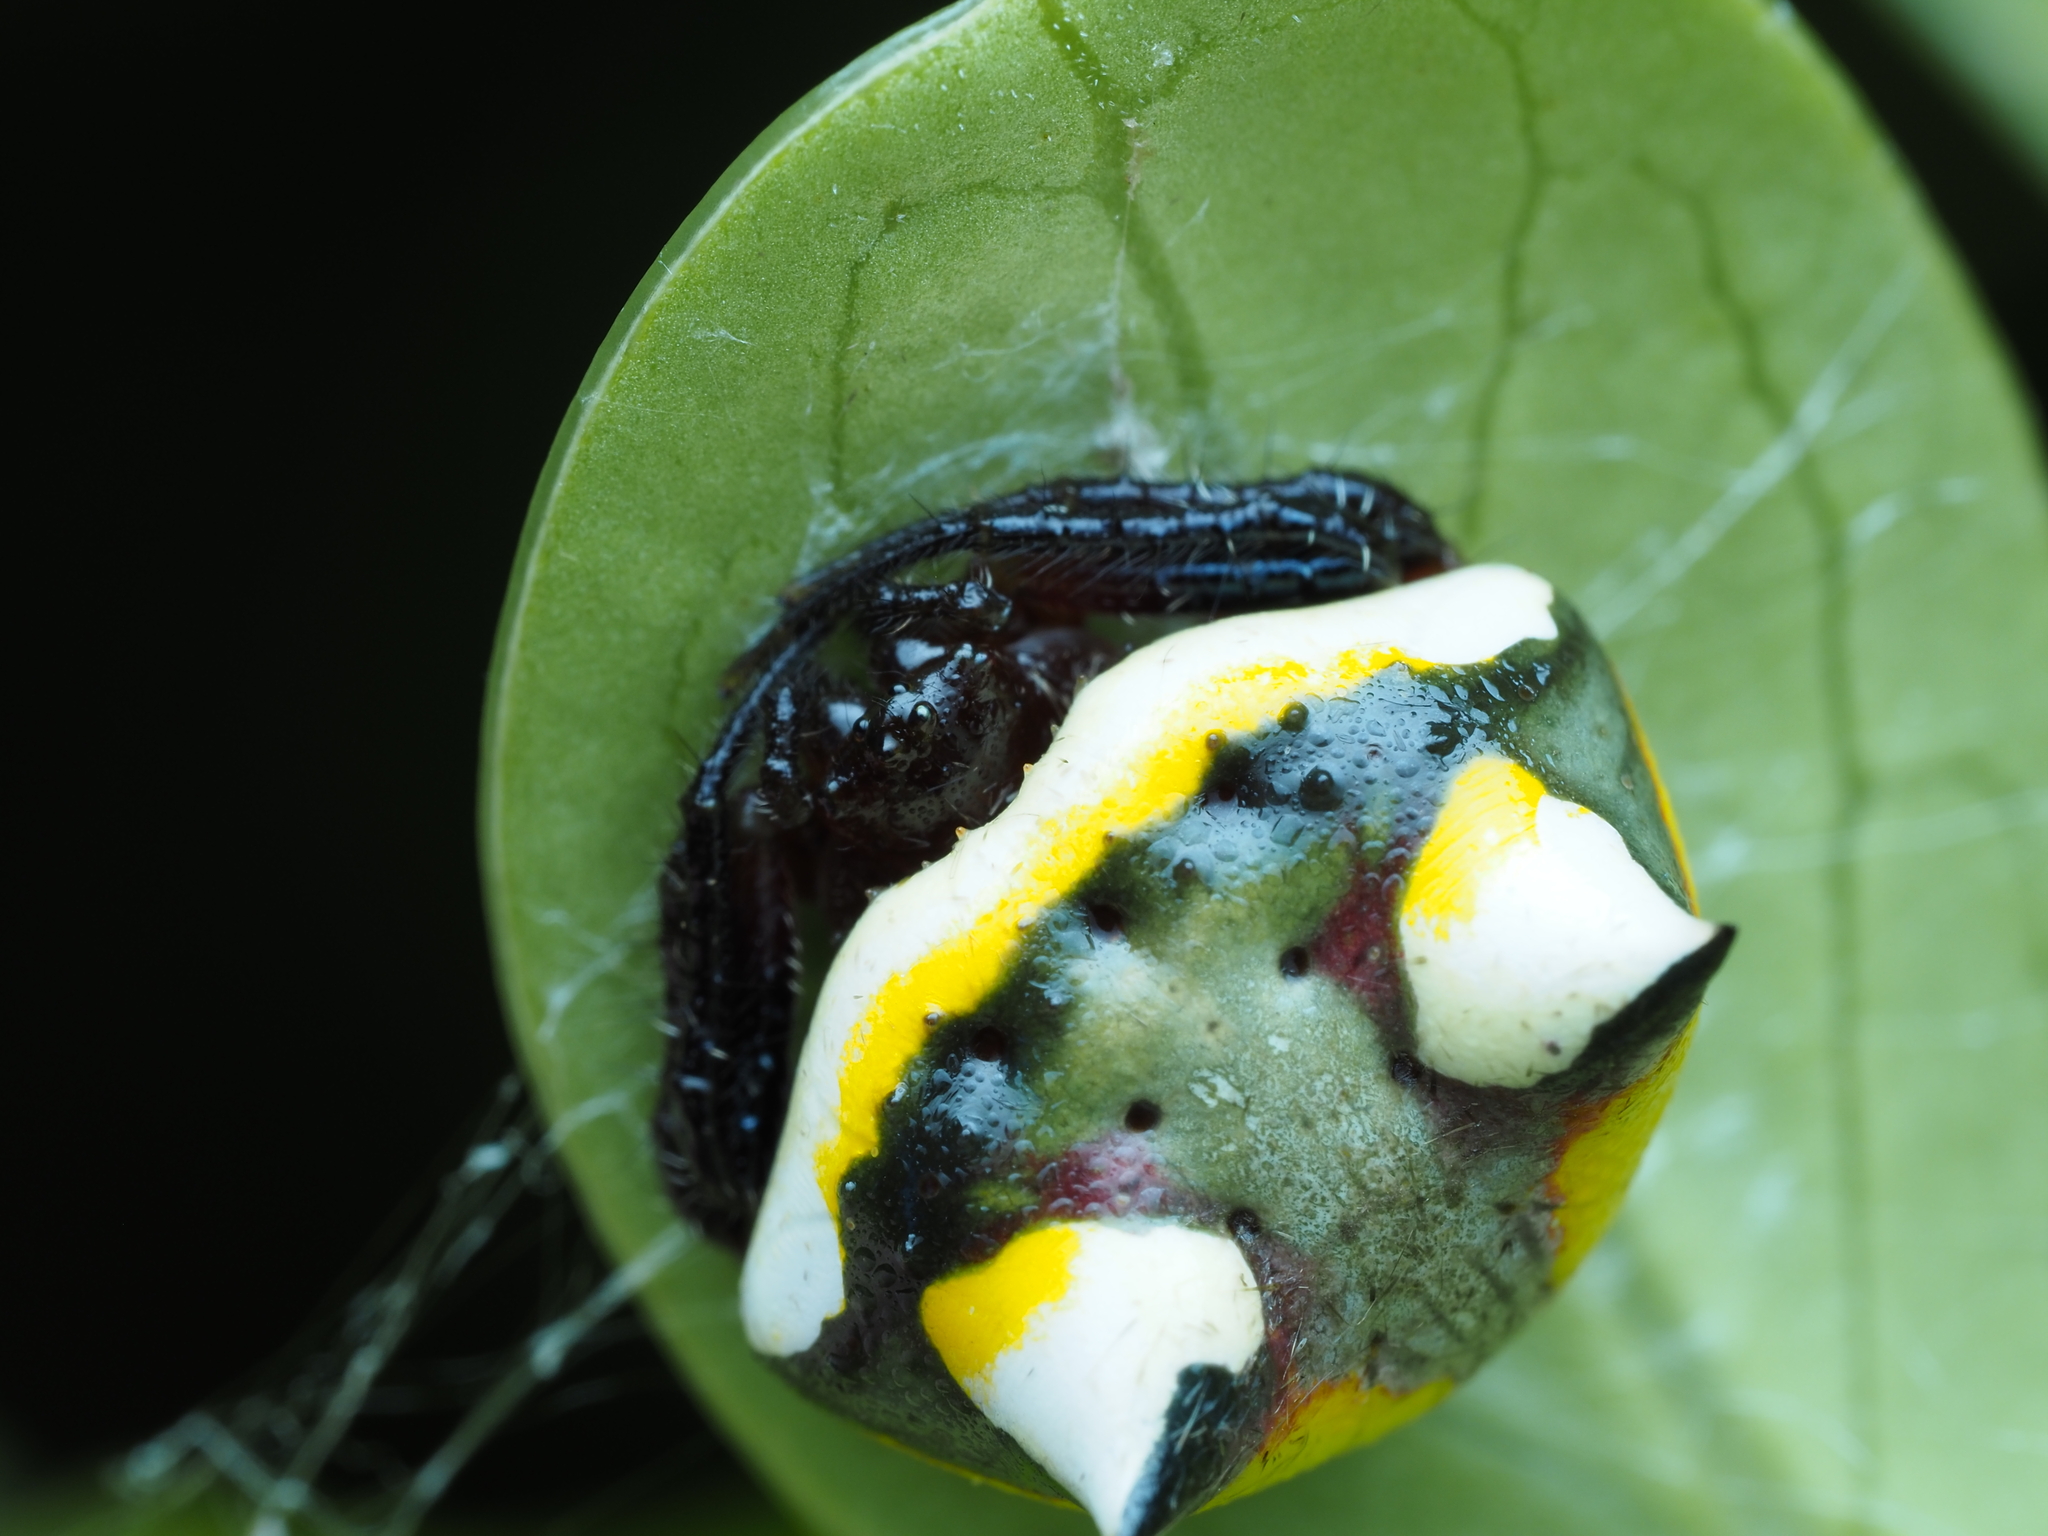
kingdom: Animalia
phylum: Arthropoda
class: Arachnida
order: Araneae
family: Araneidae
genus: Poecilopachys
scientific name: Poecilopachys australasia
